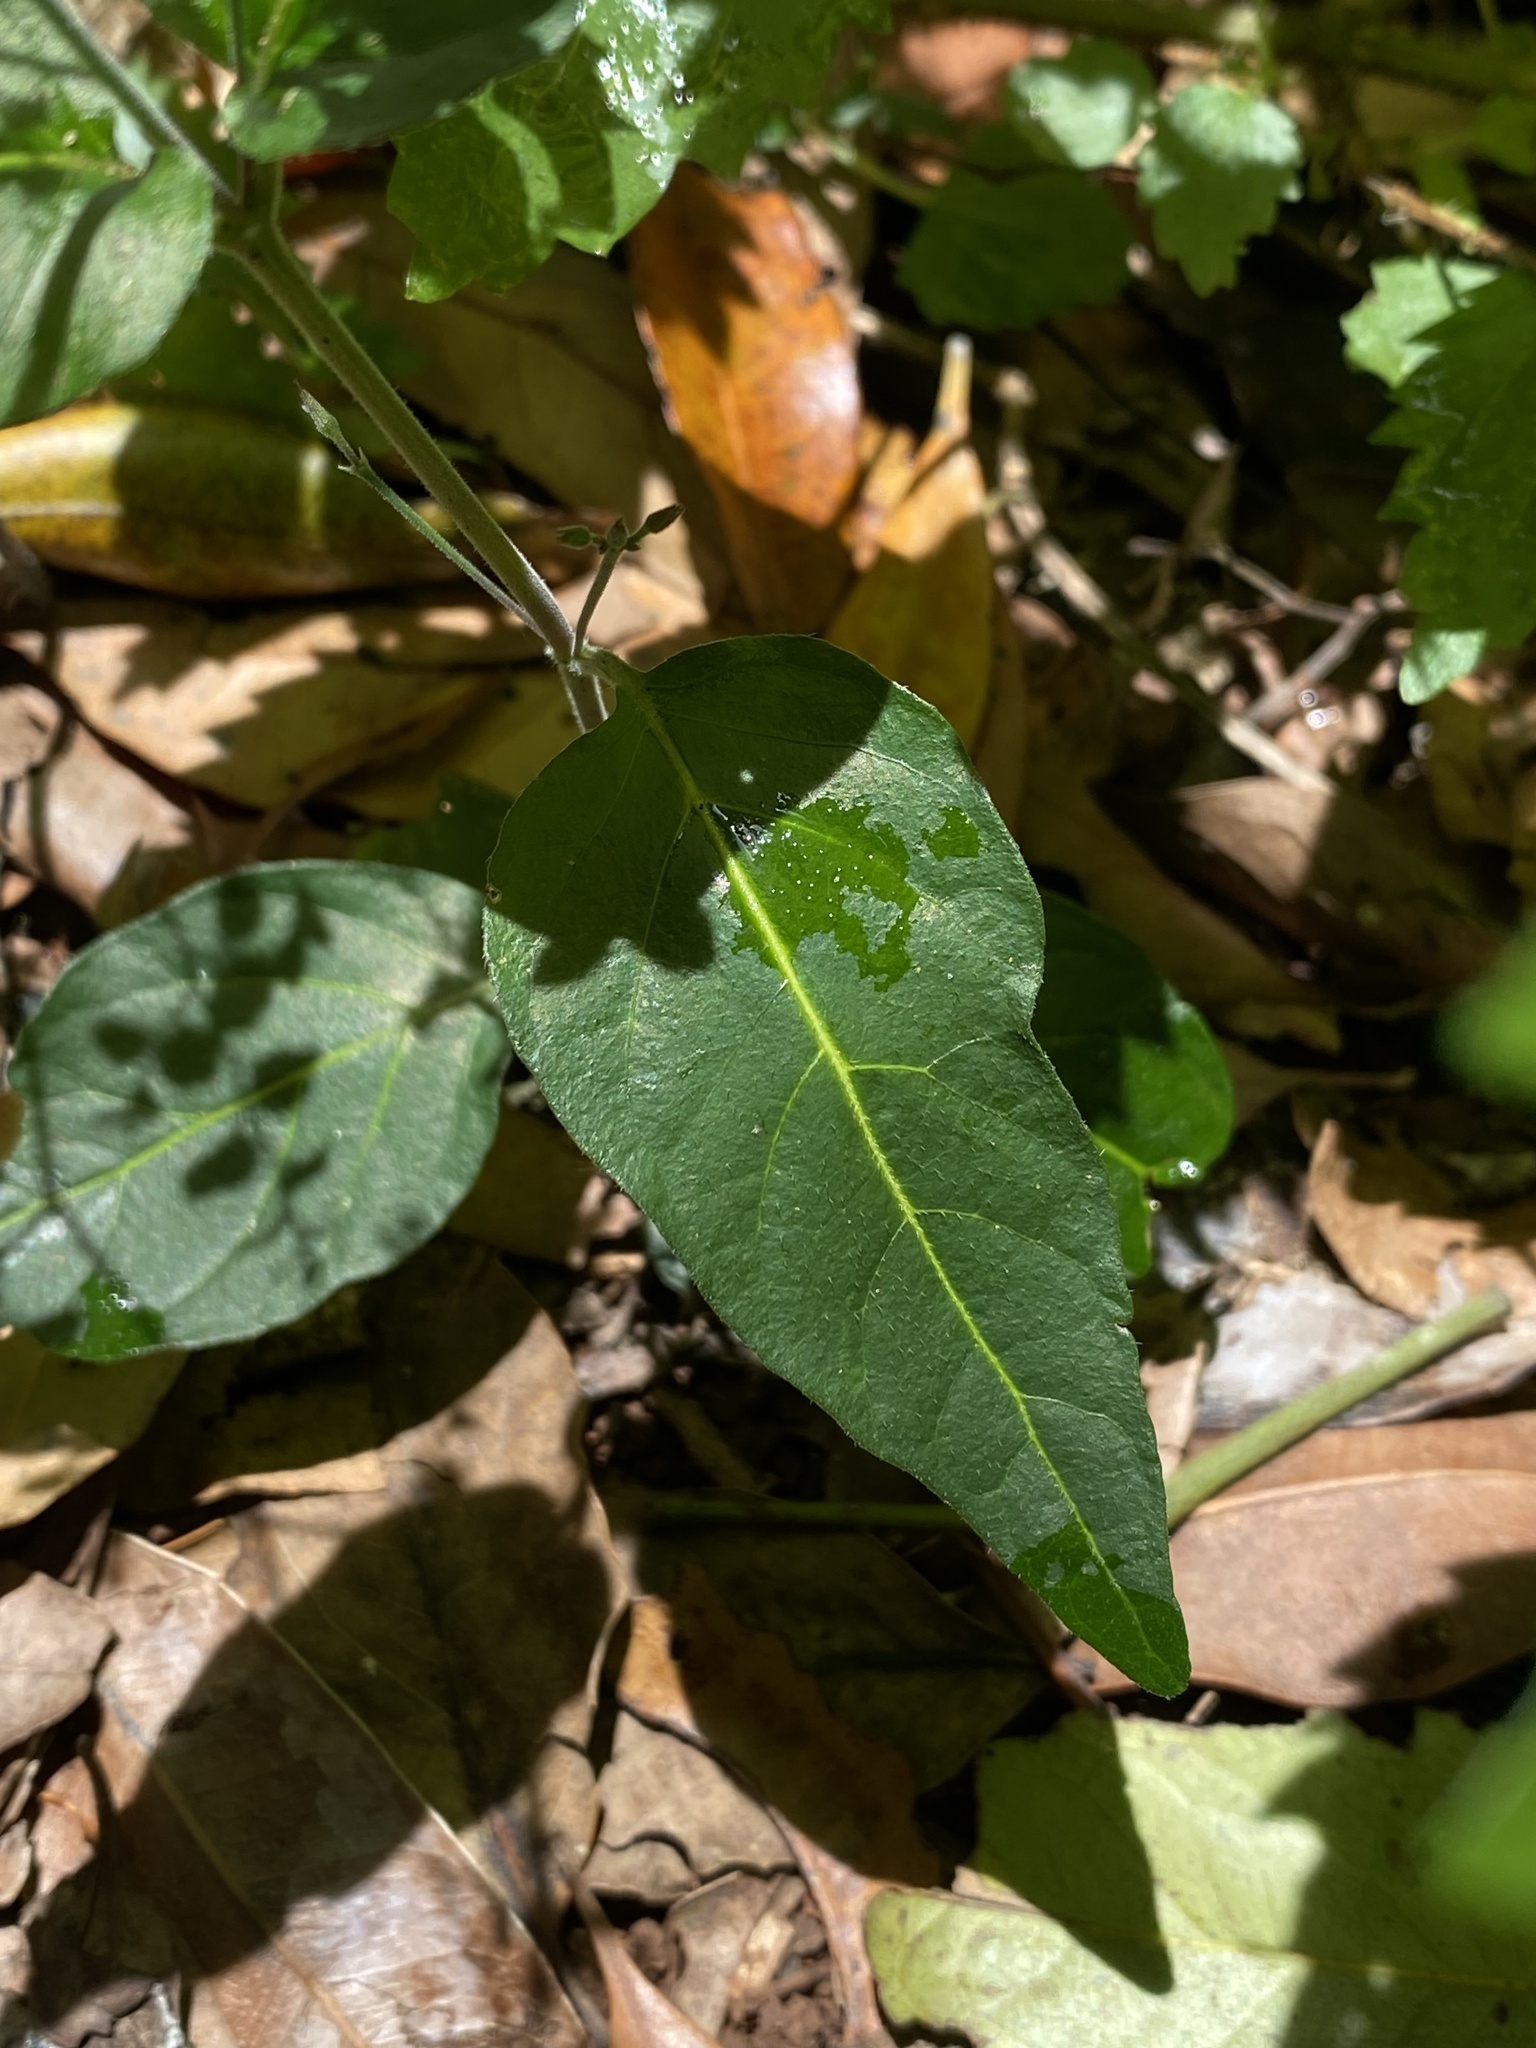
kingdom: Plantae
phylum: Tracheophyta
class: Magnoliopsida
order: Lamiales
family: Acanthaceae
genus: Pseuderanthemum
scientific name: Pseuderanthemum variabile
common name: Night and afternoon
